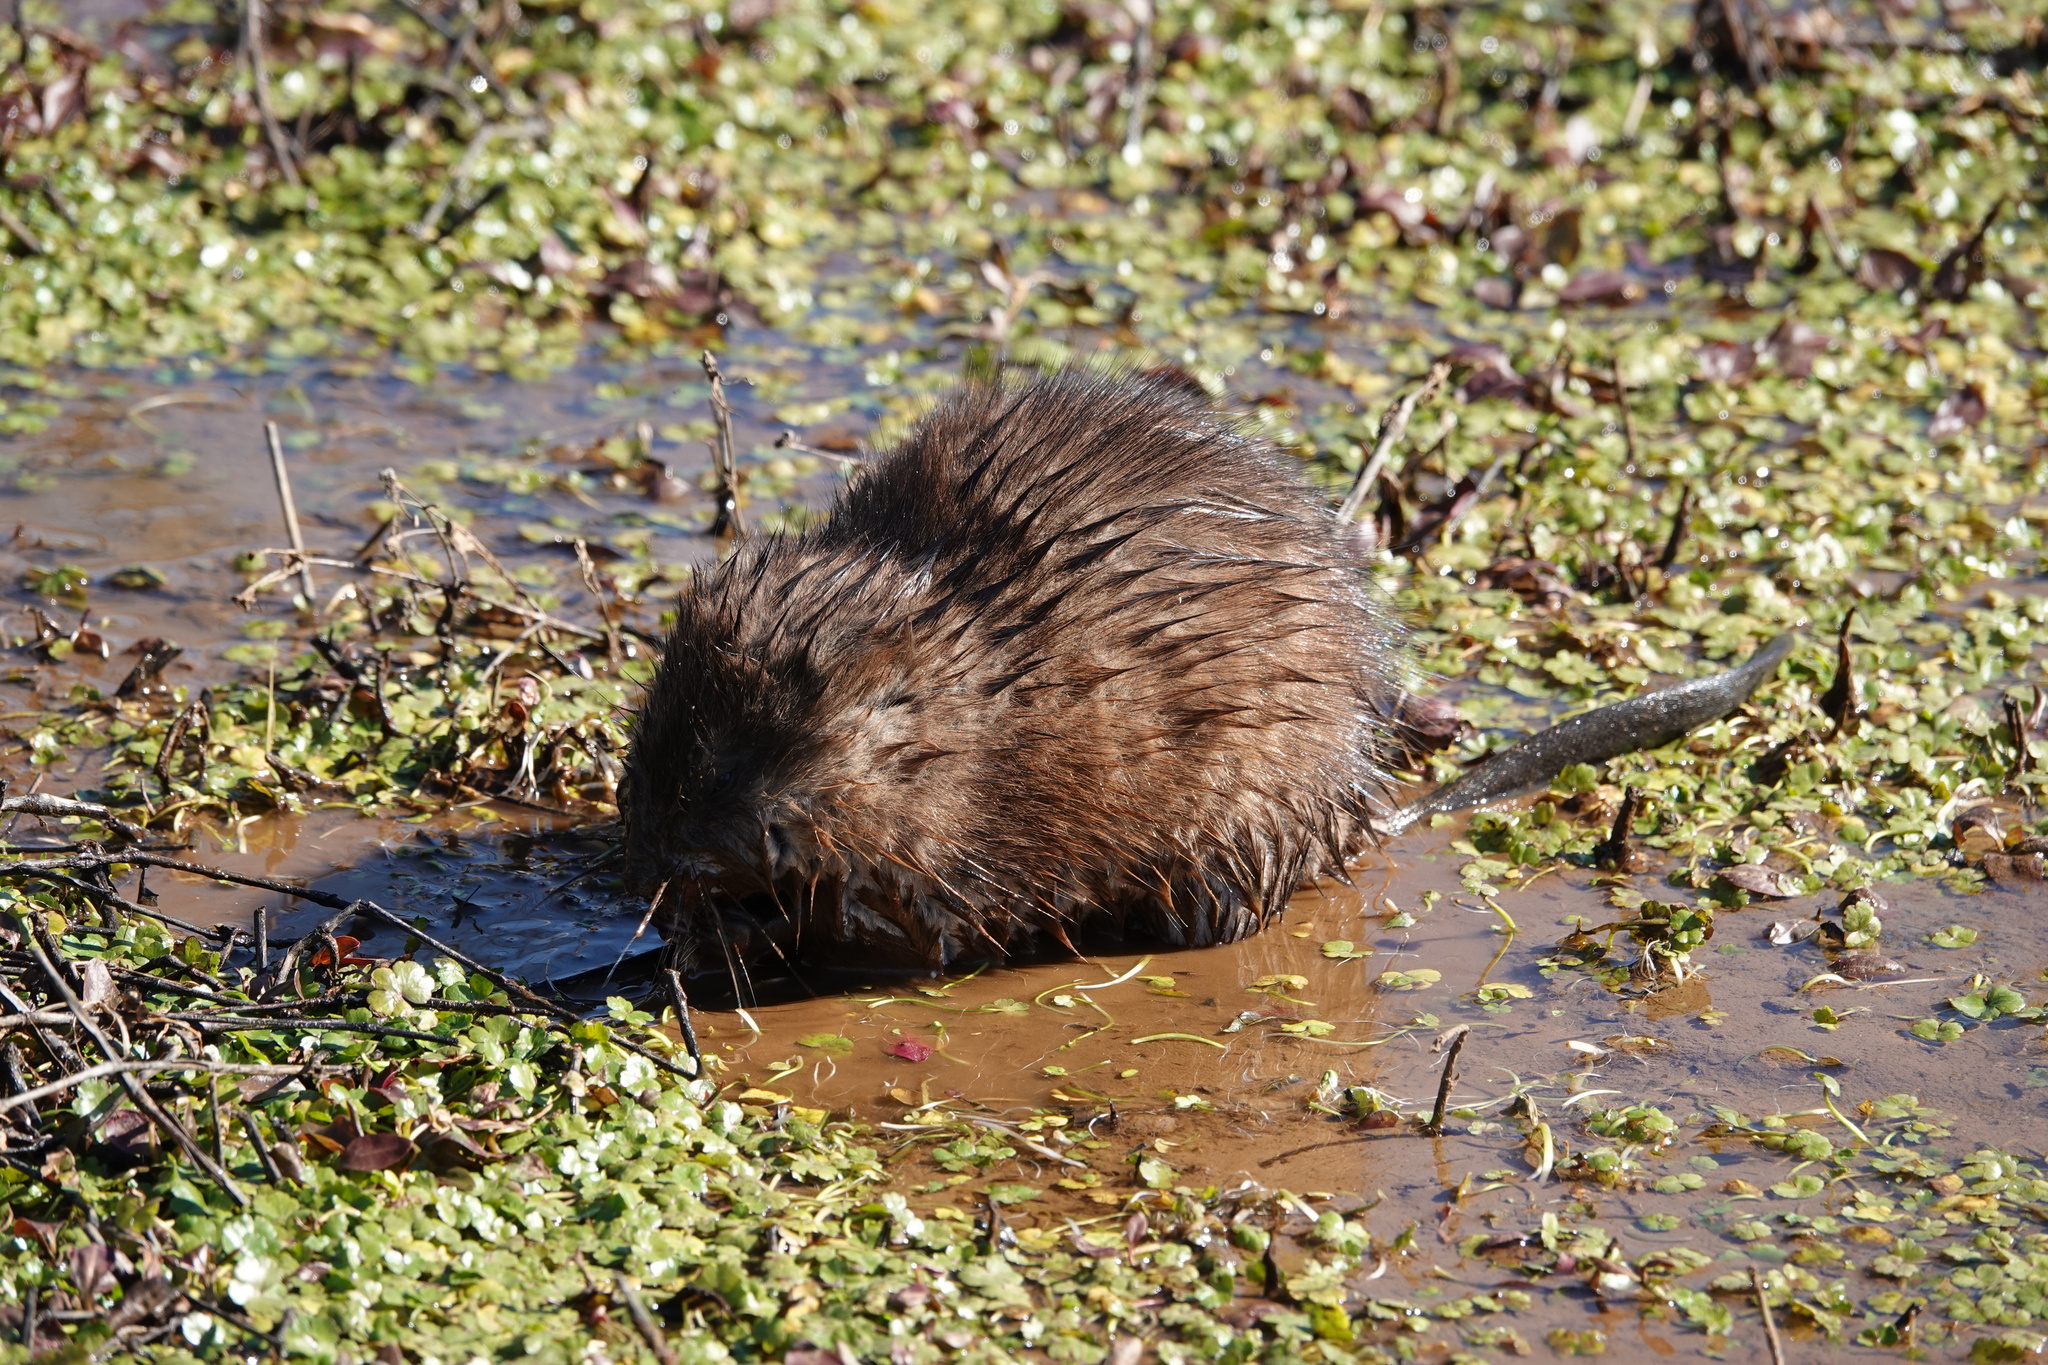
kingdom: Animalia
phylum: Chordata
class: Mammalia
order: Rodentia
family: Cricetidae
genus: Ondatra
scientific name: Ondatra zibethicus
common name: Muskrat
